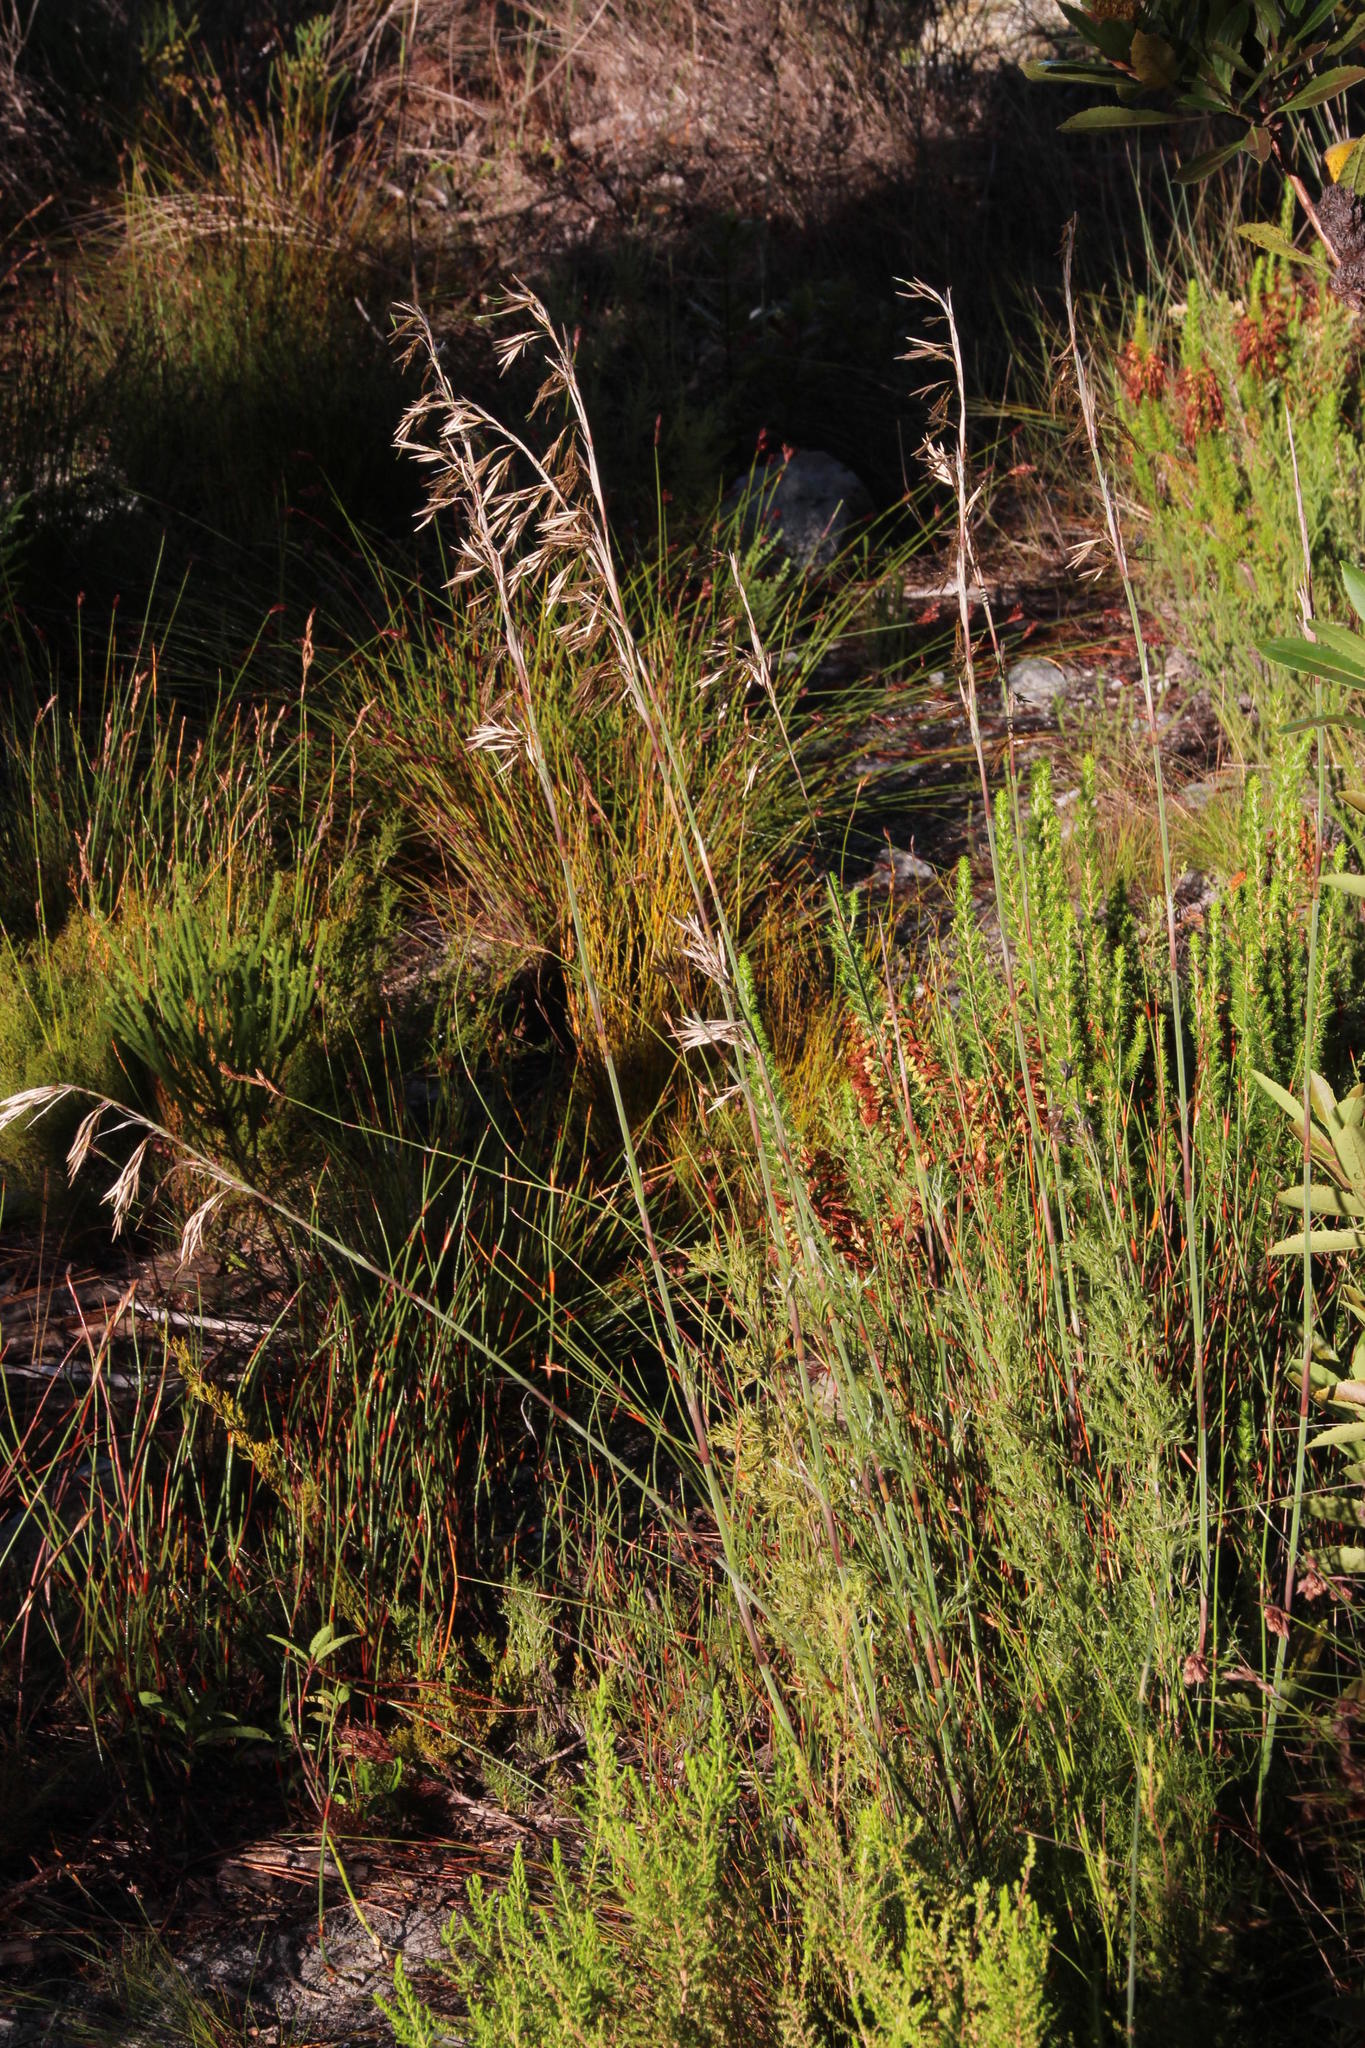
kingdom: Plantae
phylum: Tracheophyta
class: Liliopsida
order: Poales
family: Restionaceae
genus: Thamnochortus
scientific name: Thamnochortus cinereus
